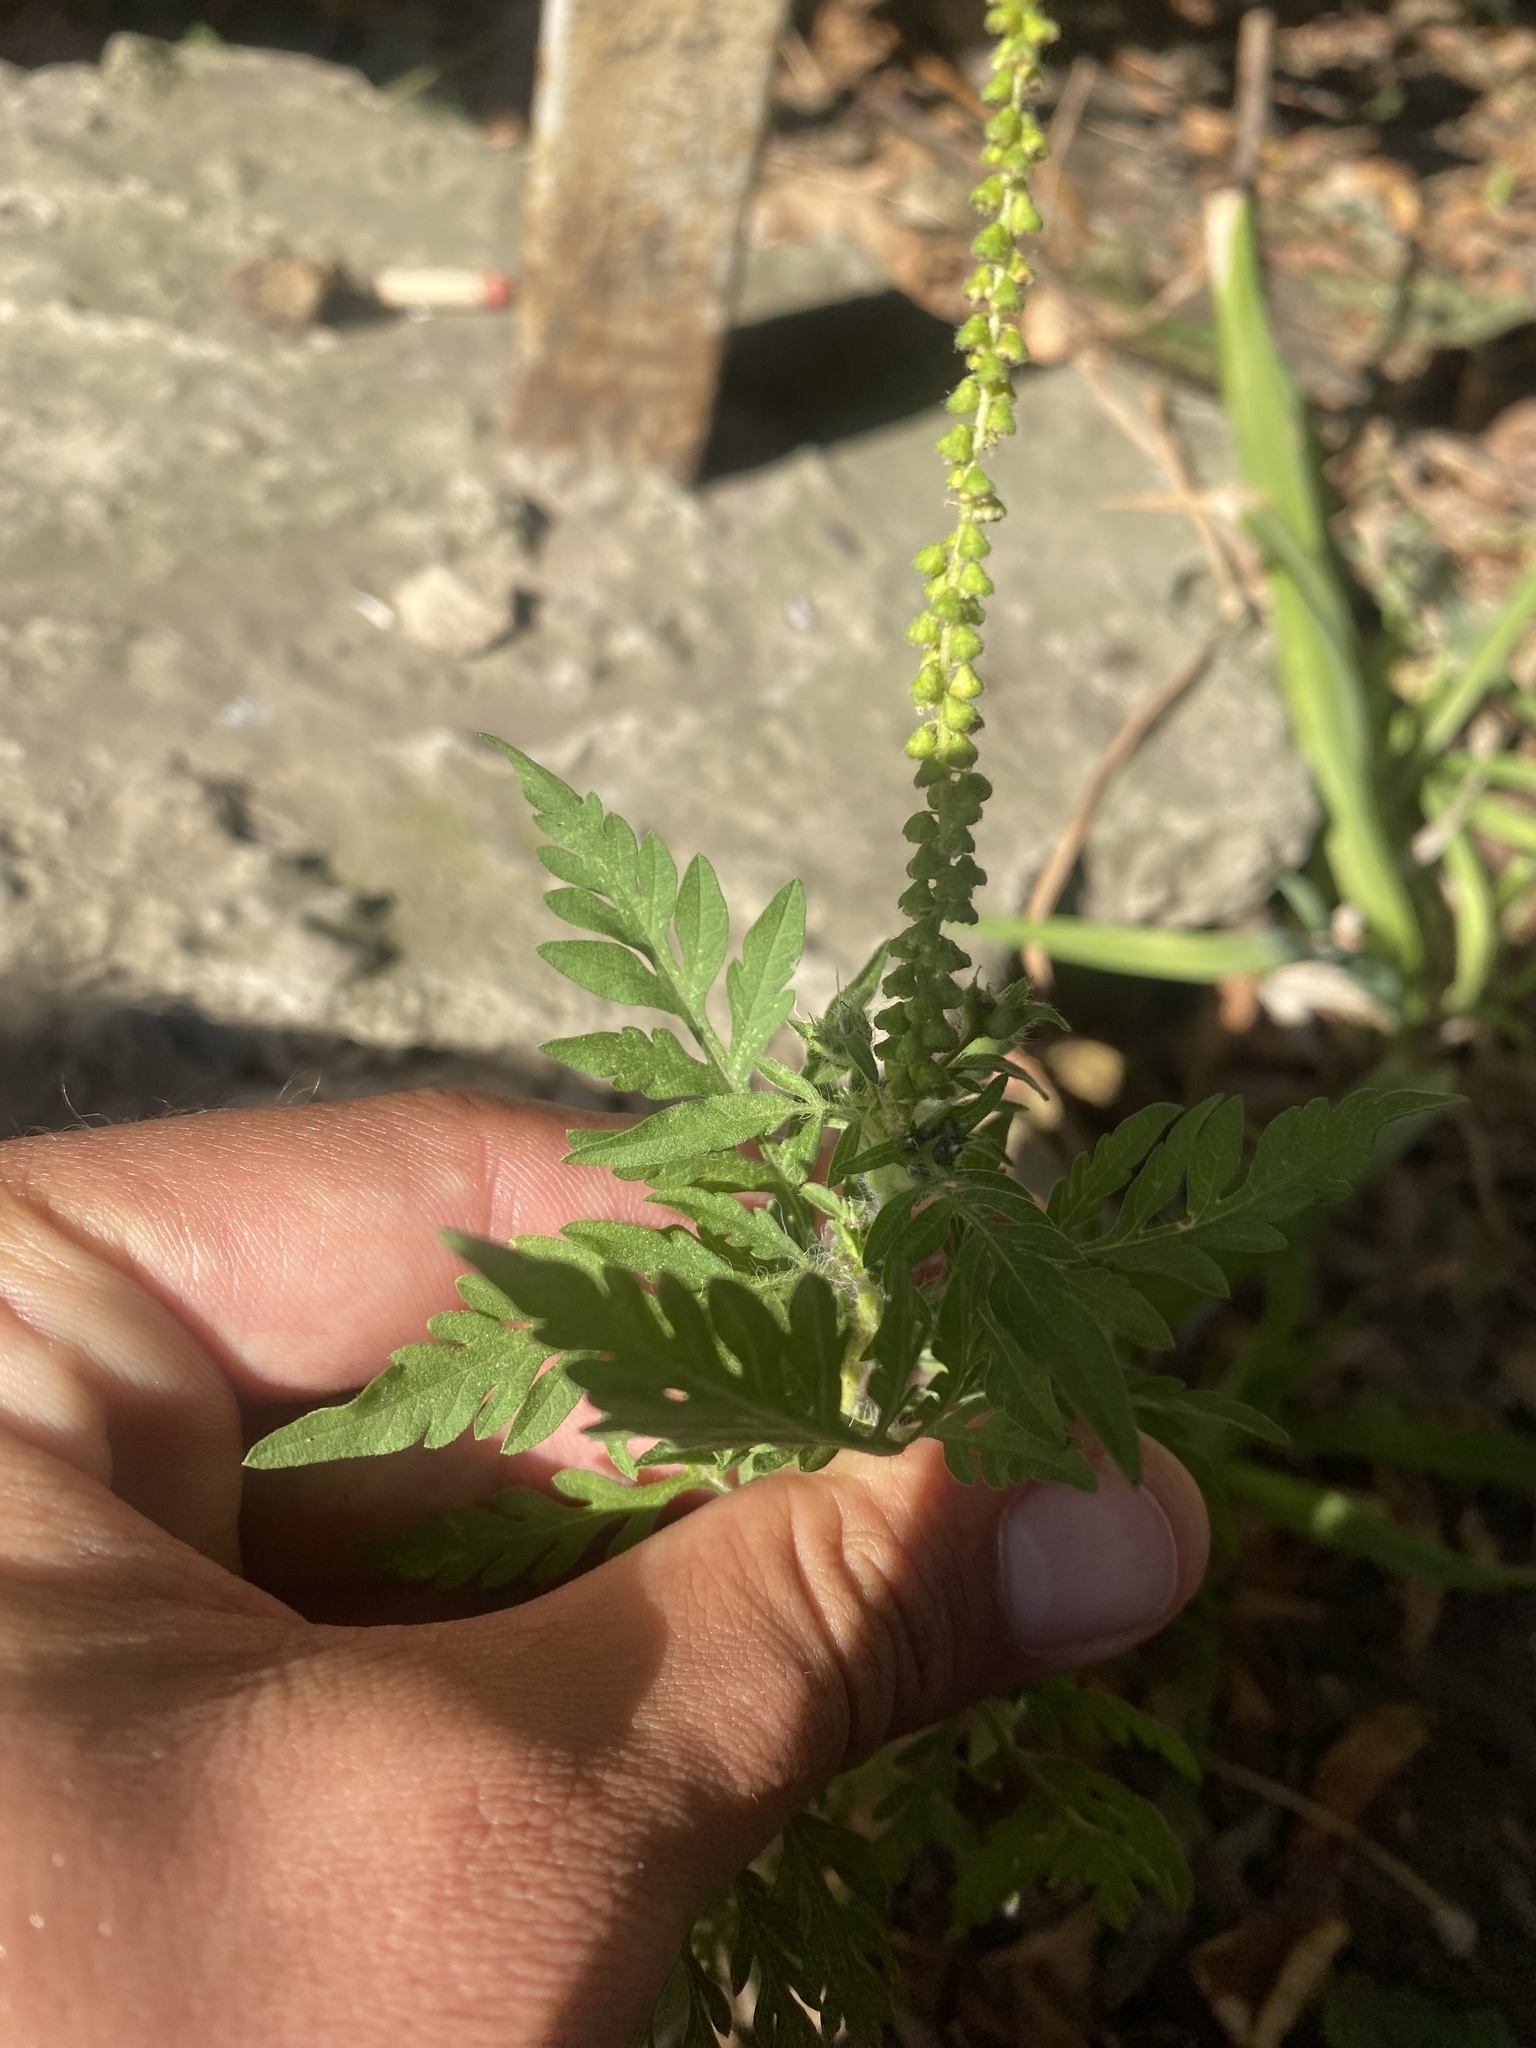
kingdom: Plantae
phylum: Tracheophyta
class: Magnoliopsida
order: Asterales
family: Asteraceae
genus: Ambrosia
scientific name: Ambrosia artemisiifolia
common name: Annual ragweed
